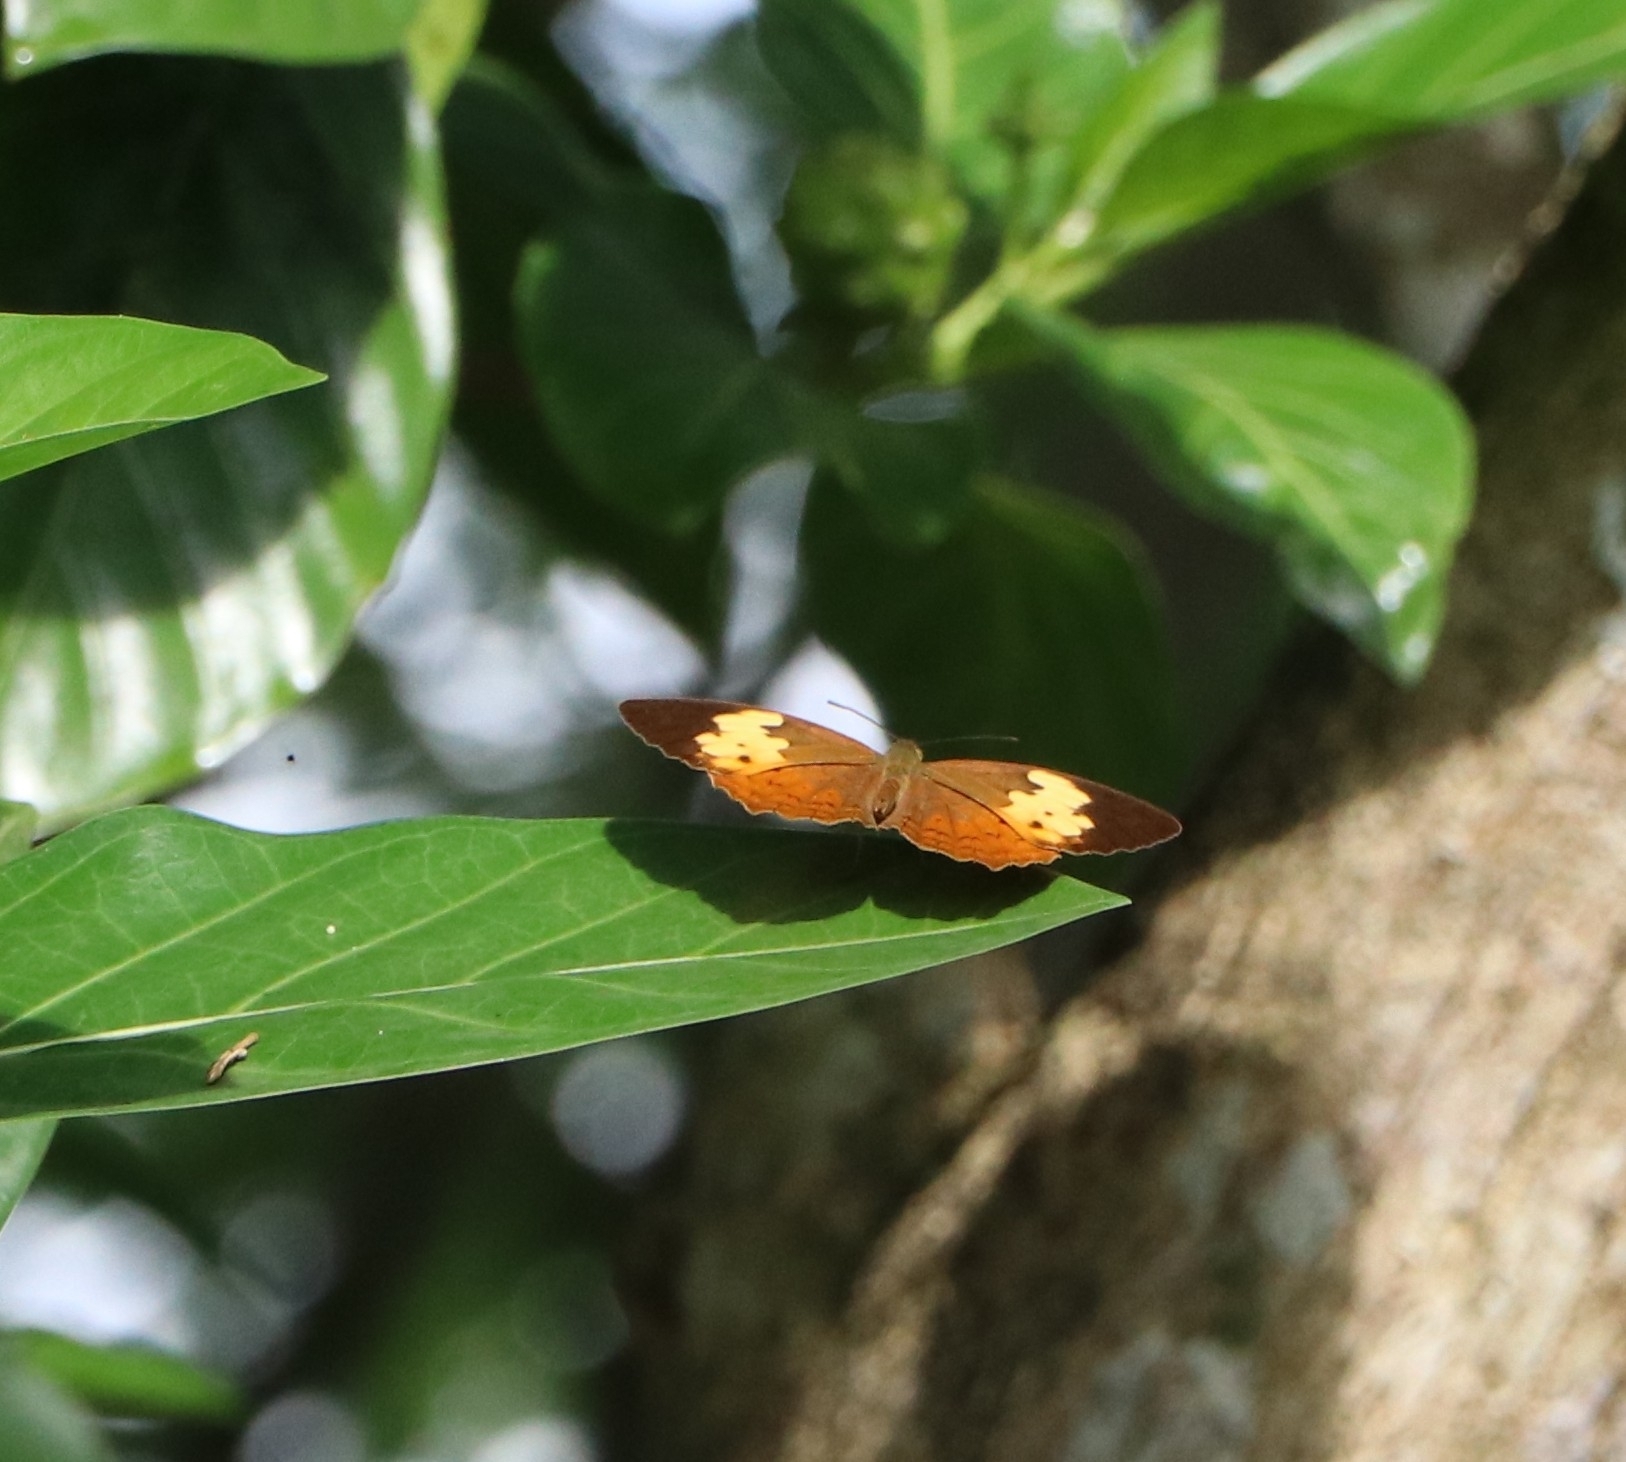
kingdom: Animalia
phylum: Arthropoda
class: Insecta
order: Lepidoptera
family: Nymphalidae
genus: Cupha
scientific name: Cupha erymanthis
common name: Rustic
